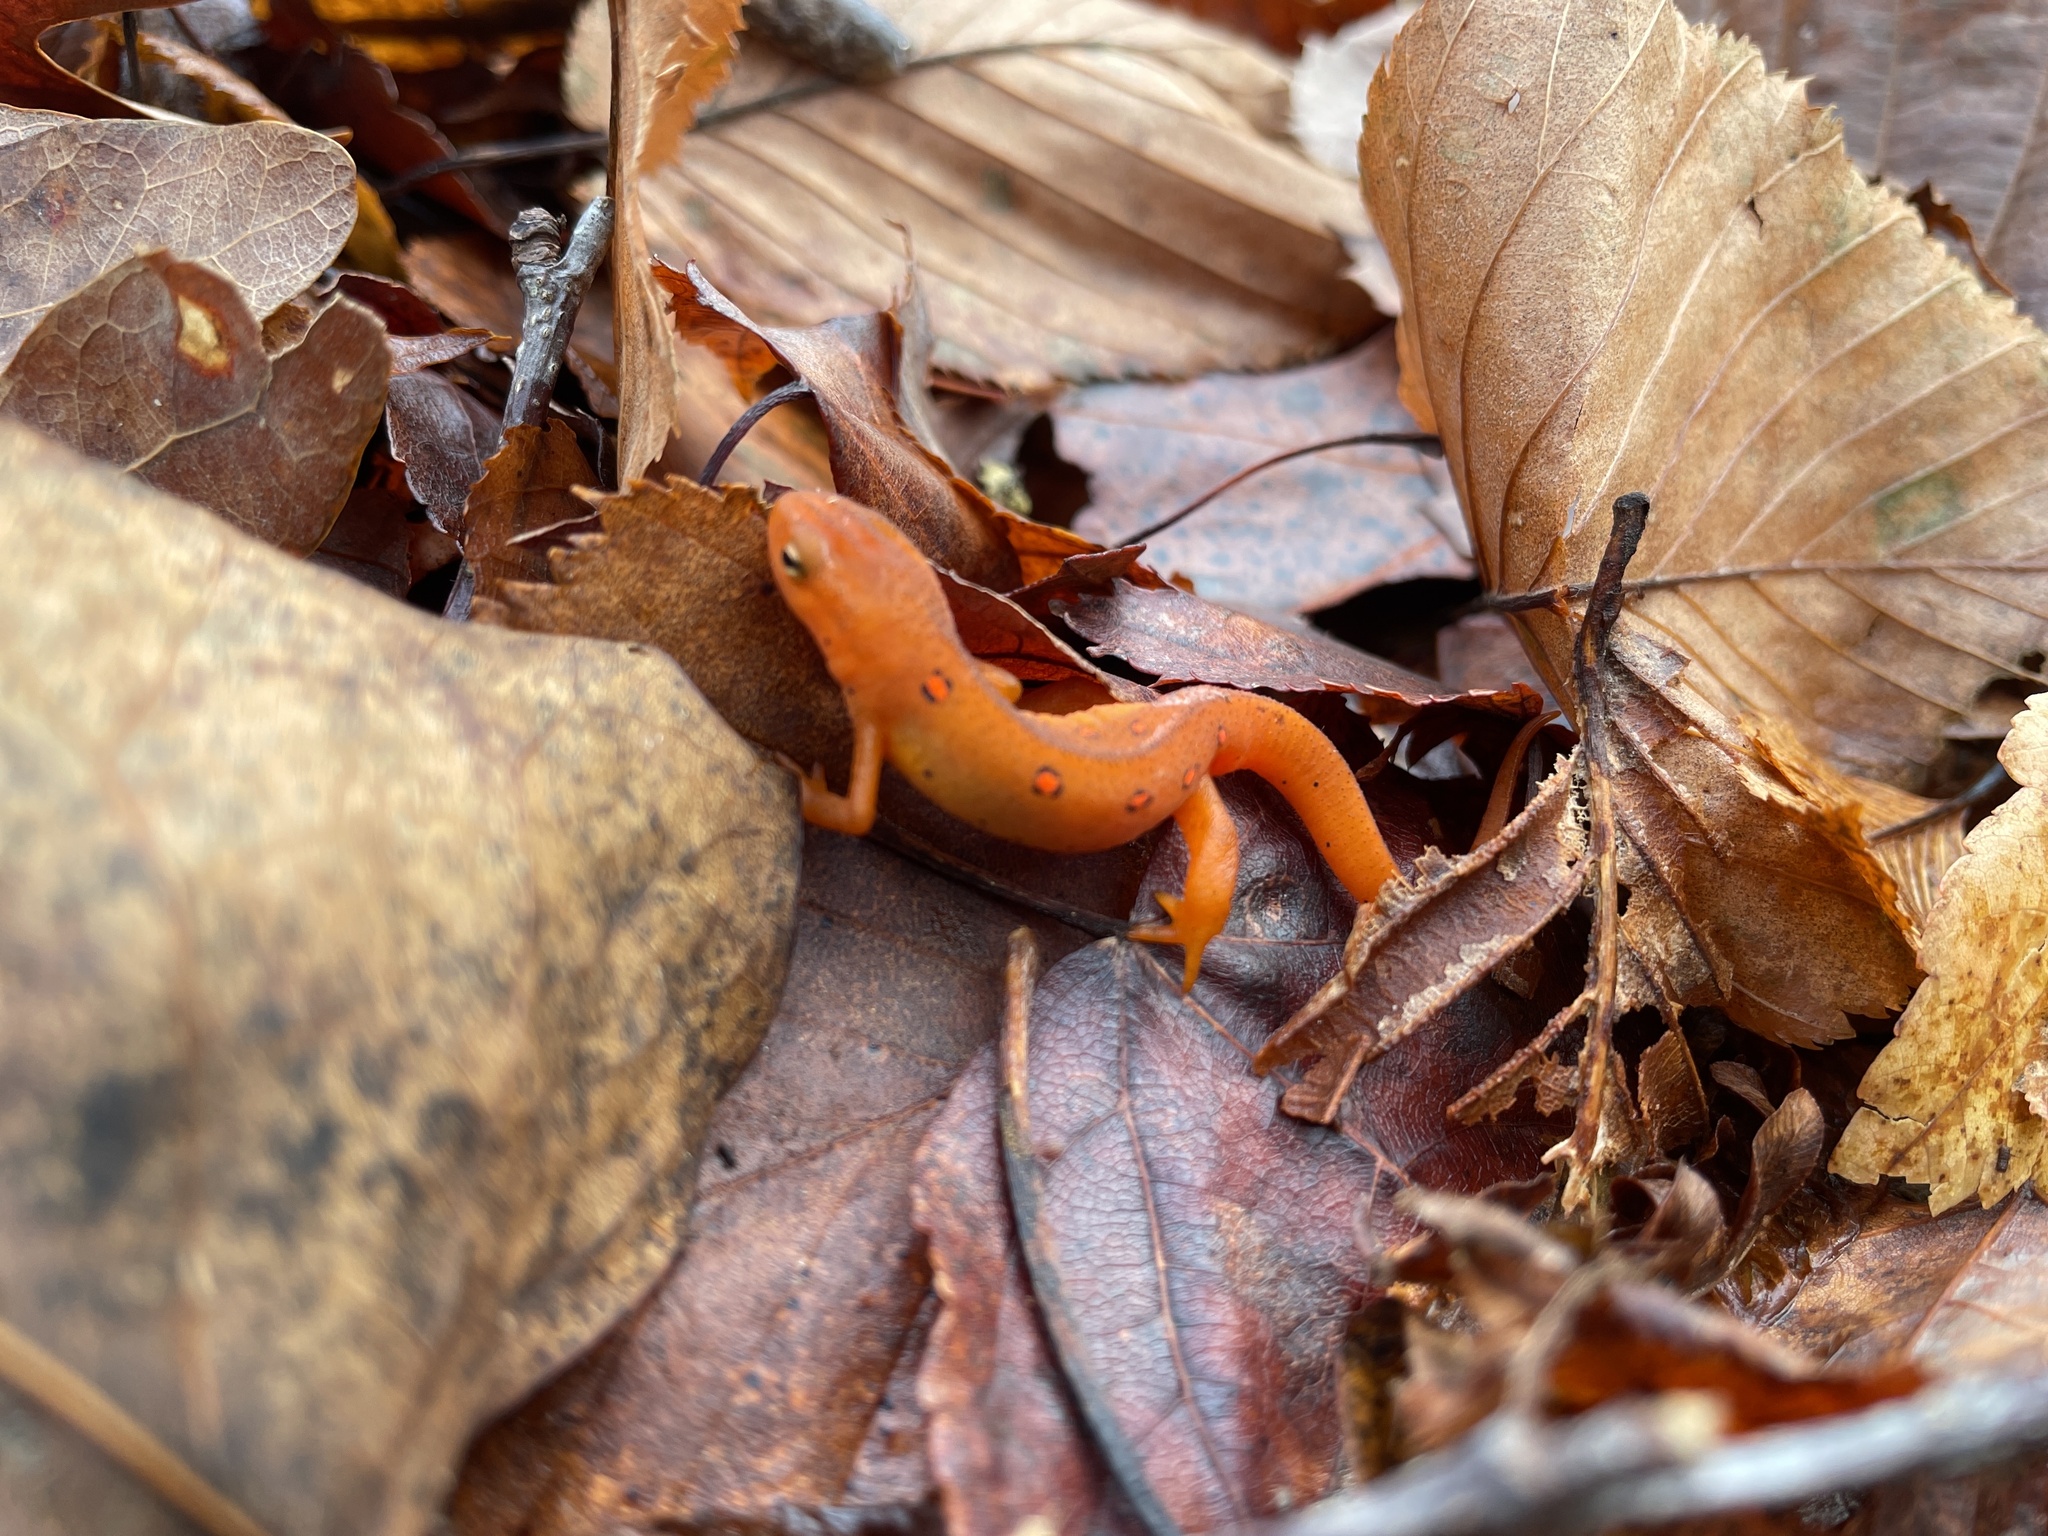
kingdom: Animalia
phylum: Chordata
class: Amphibia
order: Caudata
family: Salamandridae
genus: Notophthalmus
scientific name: Notophthalmus viridescens
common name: Eastern newt
